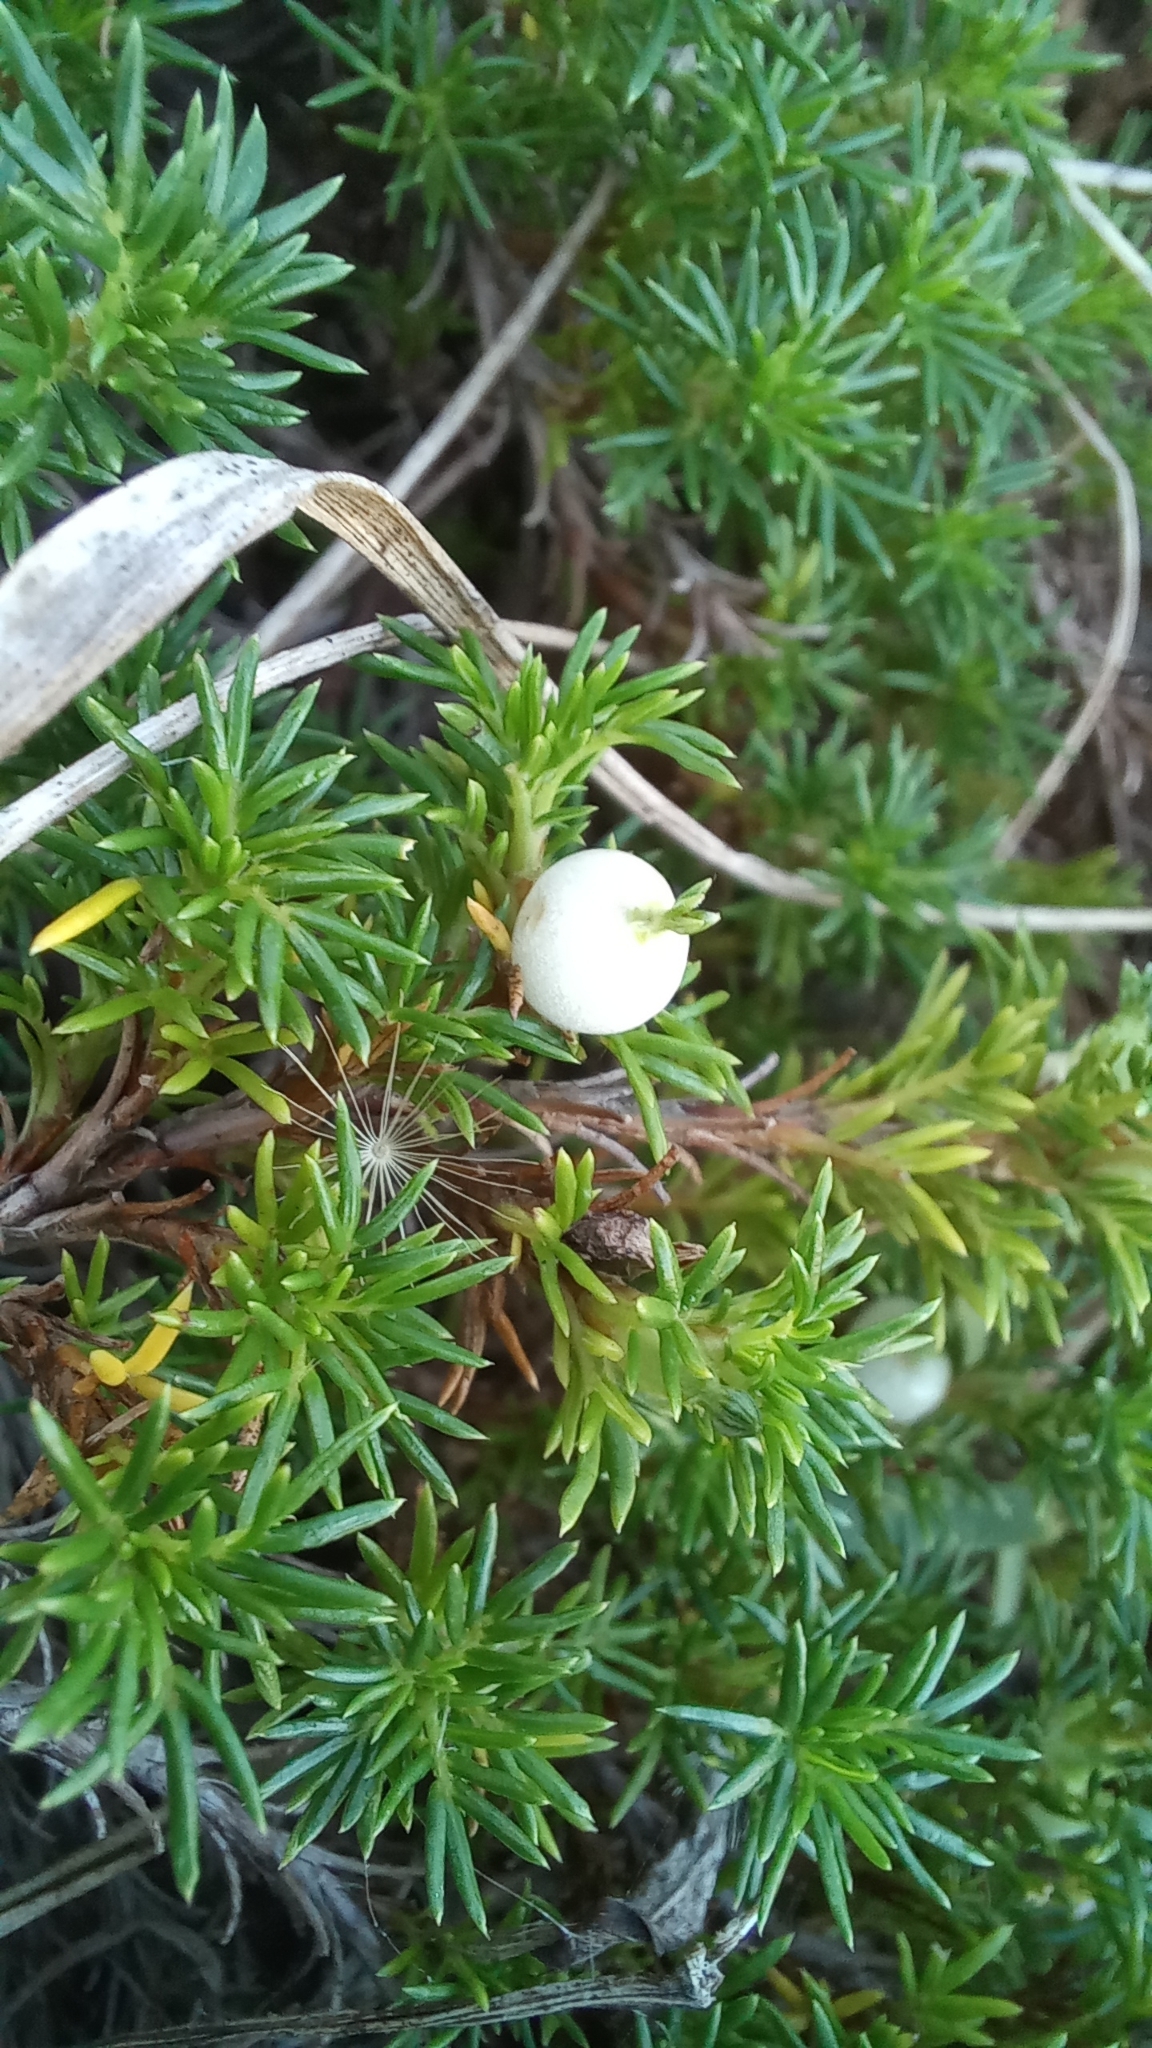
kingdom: Plantae
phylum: Tracheophyta
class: Magnoliopsida
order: Rosales
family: Rosaceae
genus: Margyricarpus
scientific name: Margyricarpus pinnatus
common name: Pearlfruit
